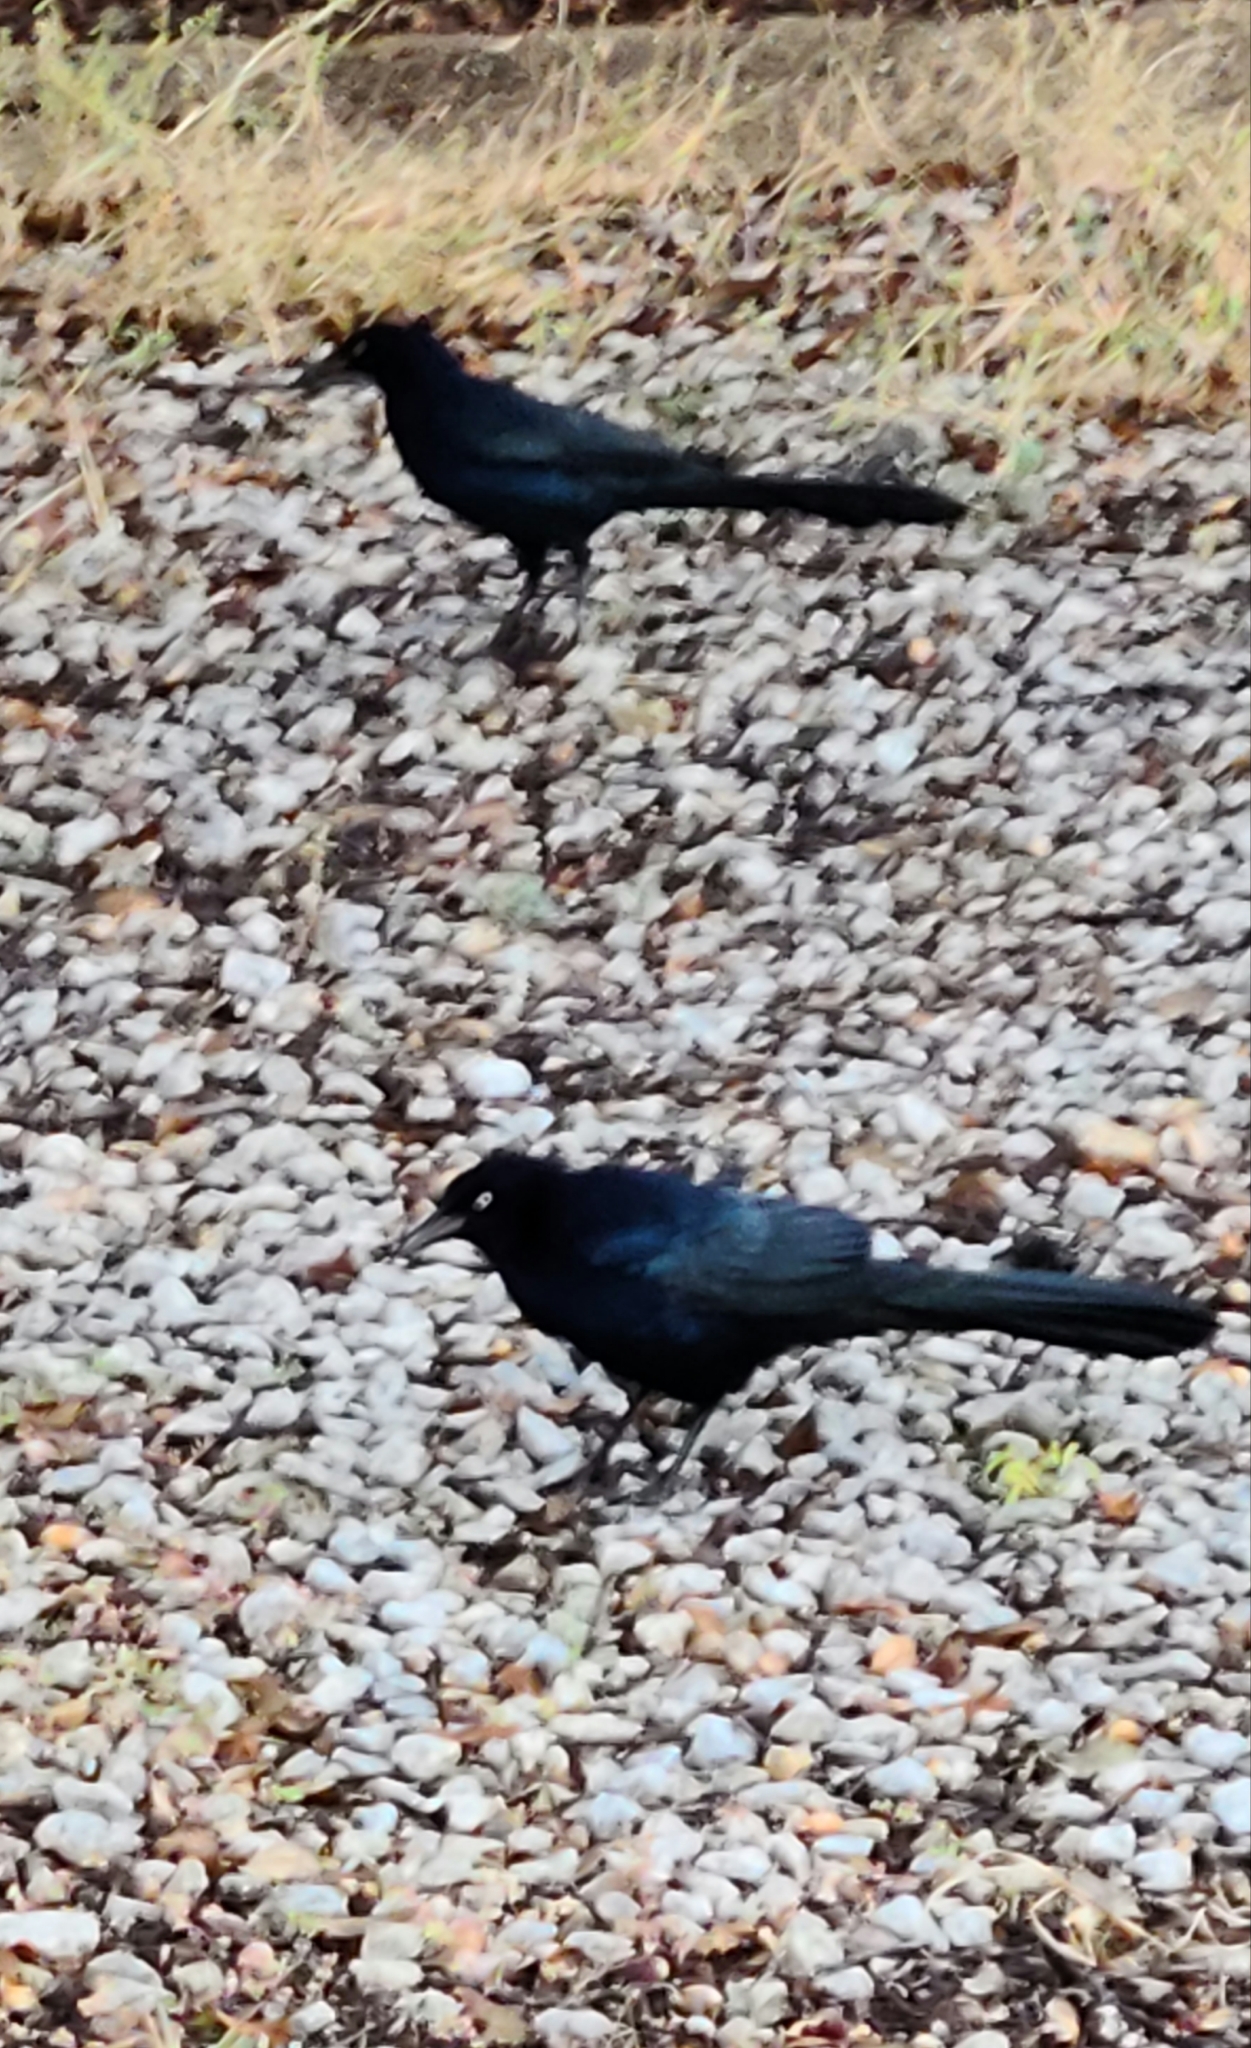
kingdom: Animalia
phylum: Chordata
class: Aves
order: Passeriformes
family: Icteridae
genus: Quiscalus
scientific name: Quiscalus mexicanus
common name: Great-tailed grackle
